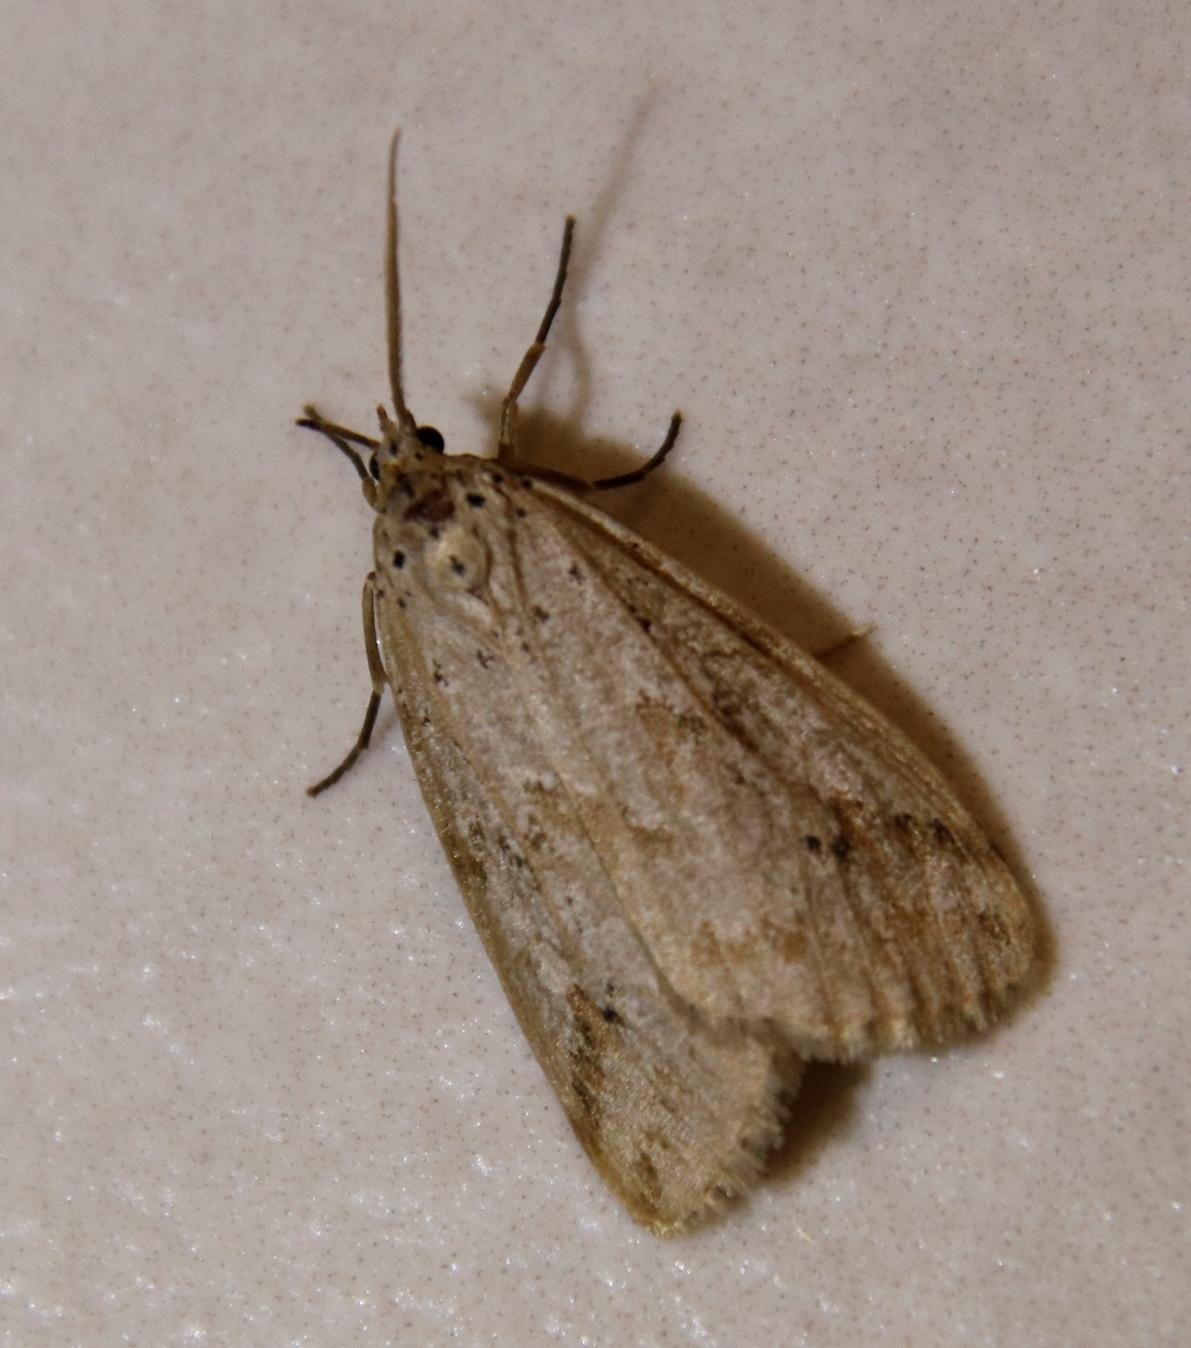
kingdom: Animalia
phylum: Arthropoda
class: Insecta
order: Lepidoptera
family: Erebidae
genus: Galtara
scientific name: Galtara rostrata
